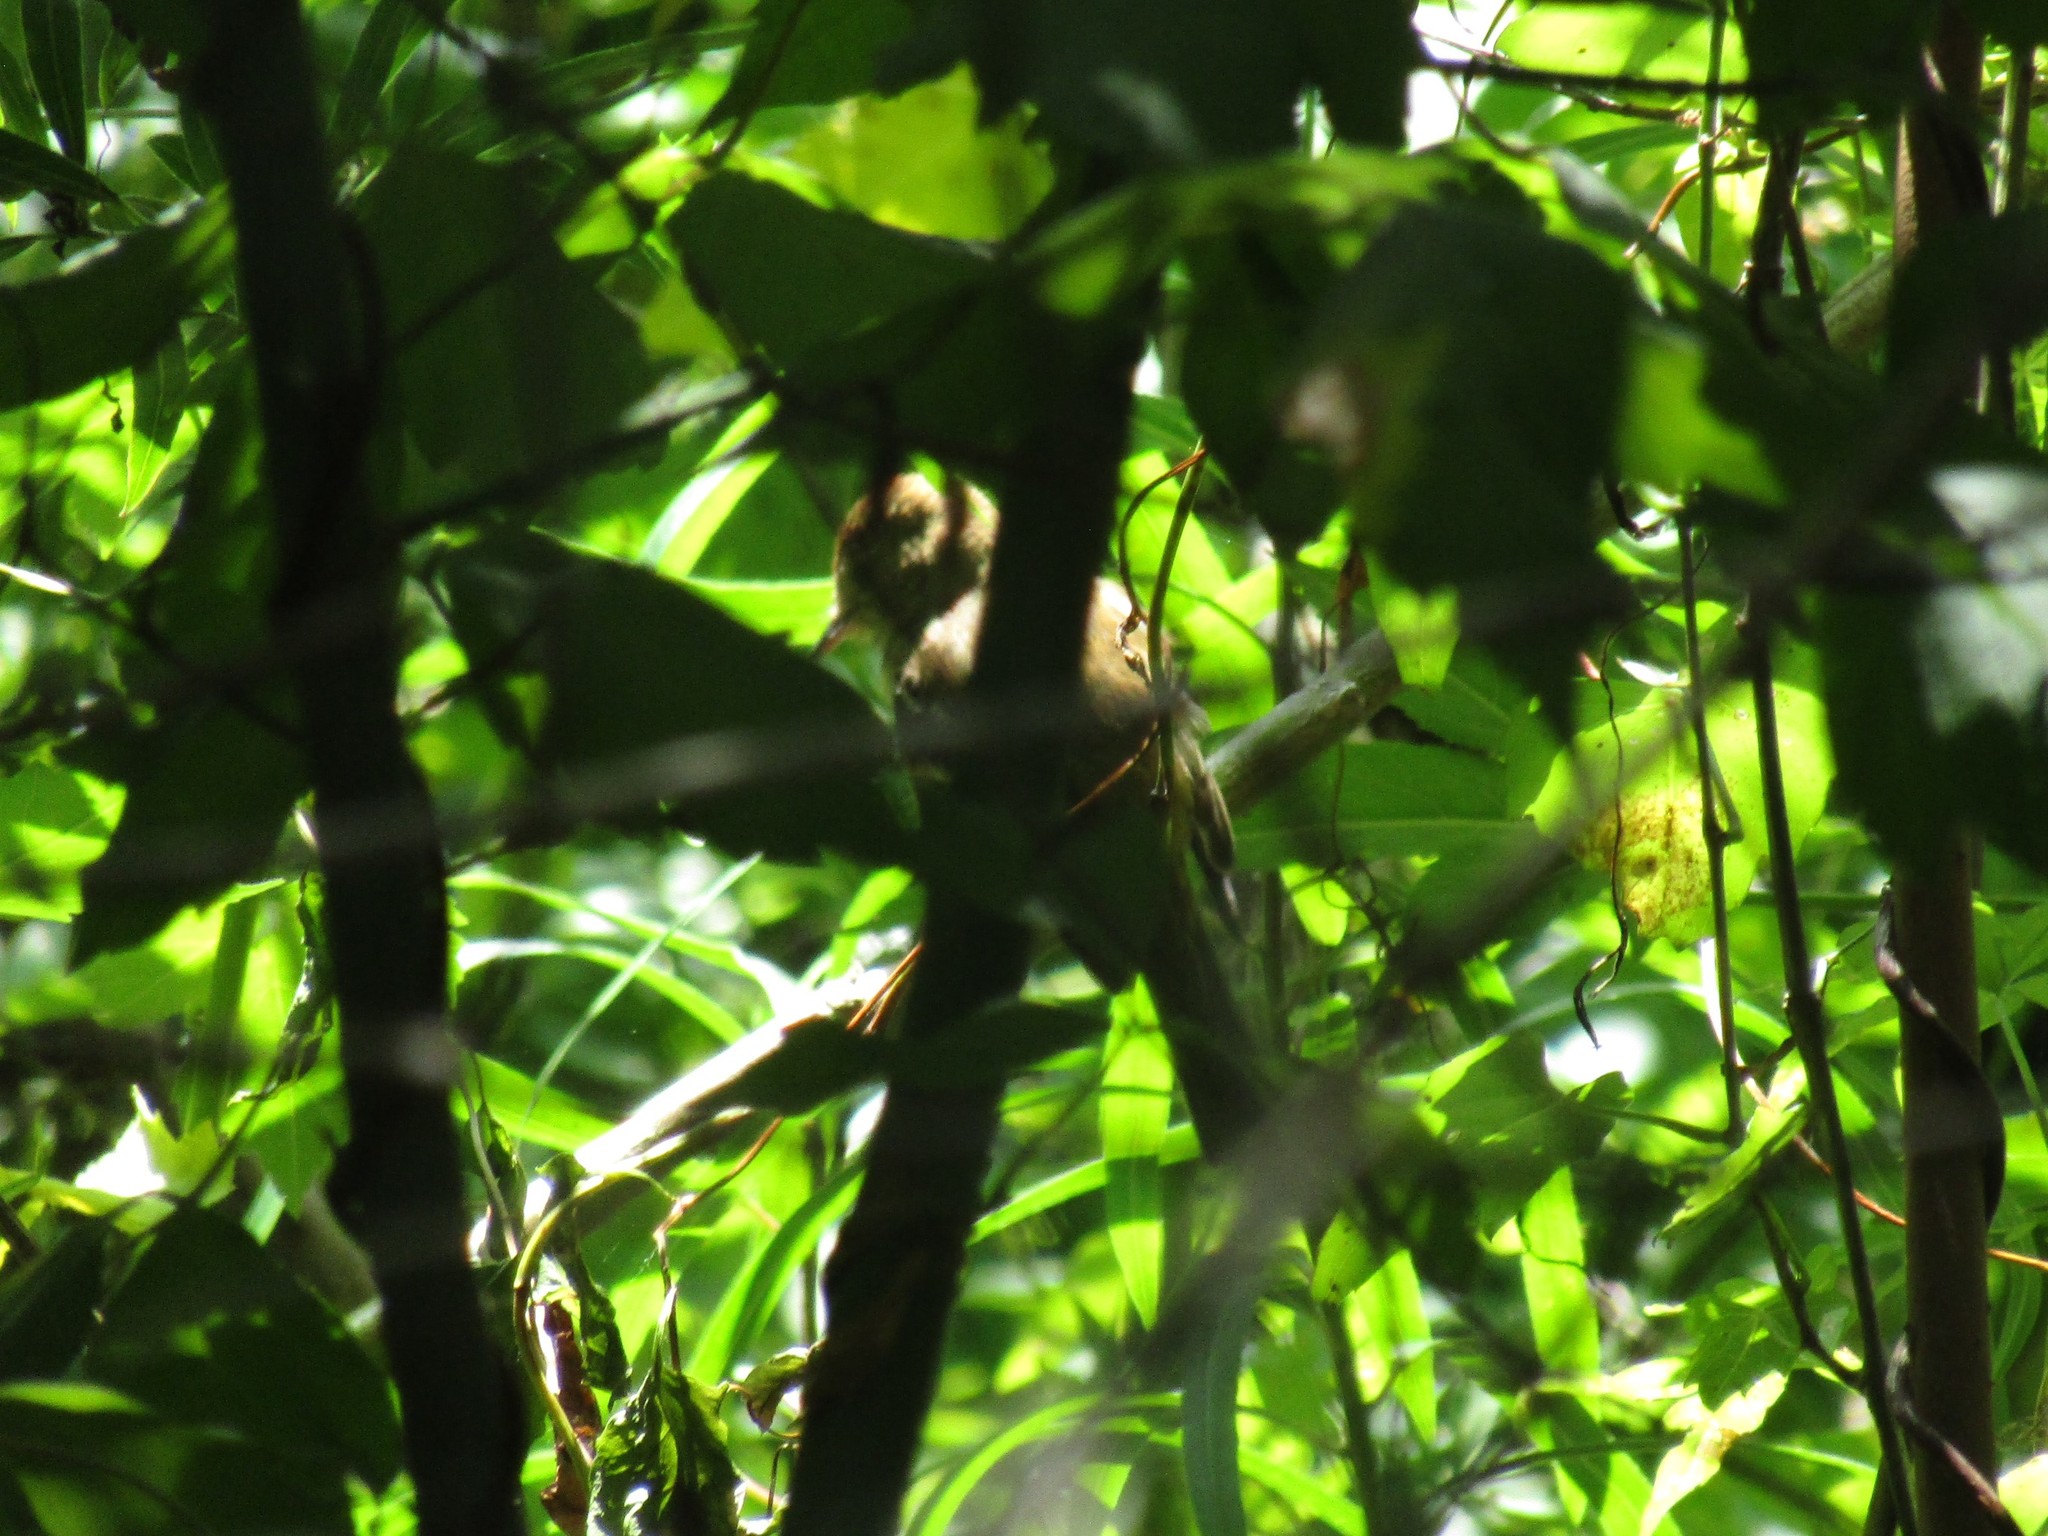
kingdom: Animalia
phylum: Chordata
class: Aves
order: Passeriformes
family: Tyrannidae
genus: Myiophobus
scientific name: Myiophobus fasciatus
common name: Bran-colored flycatcher
